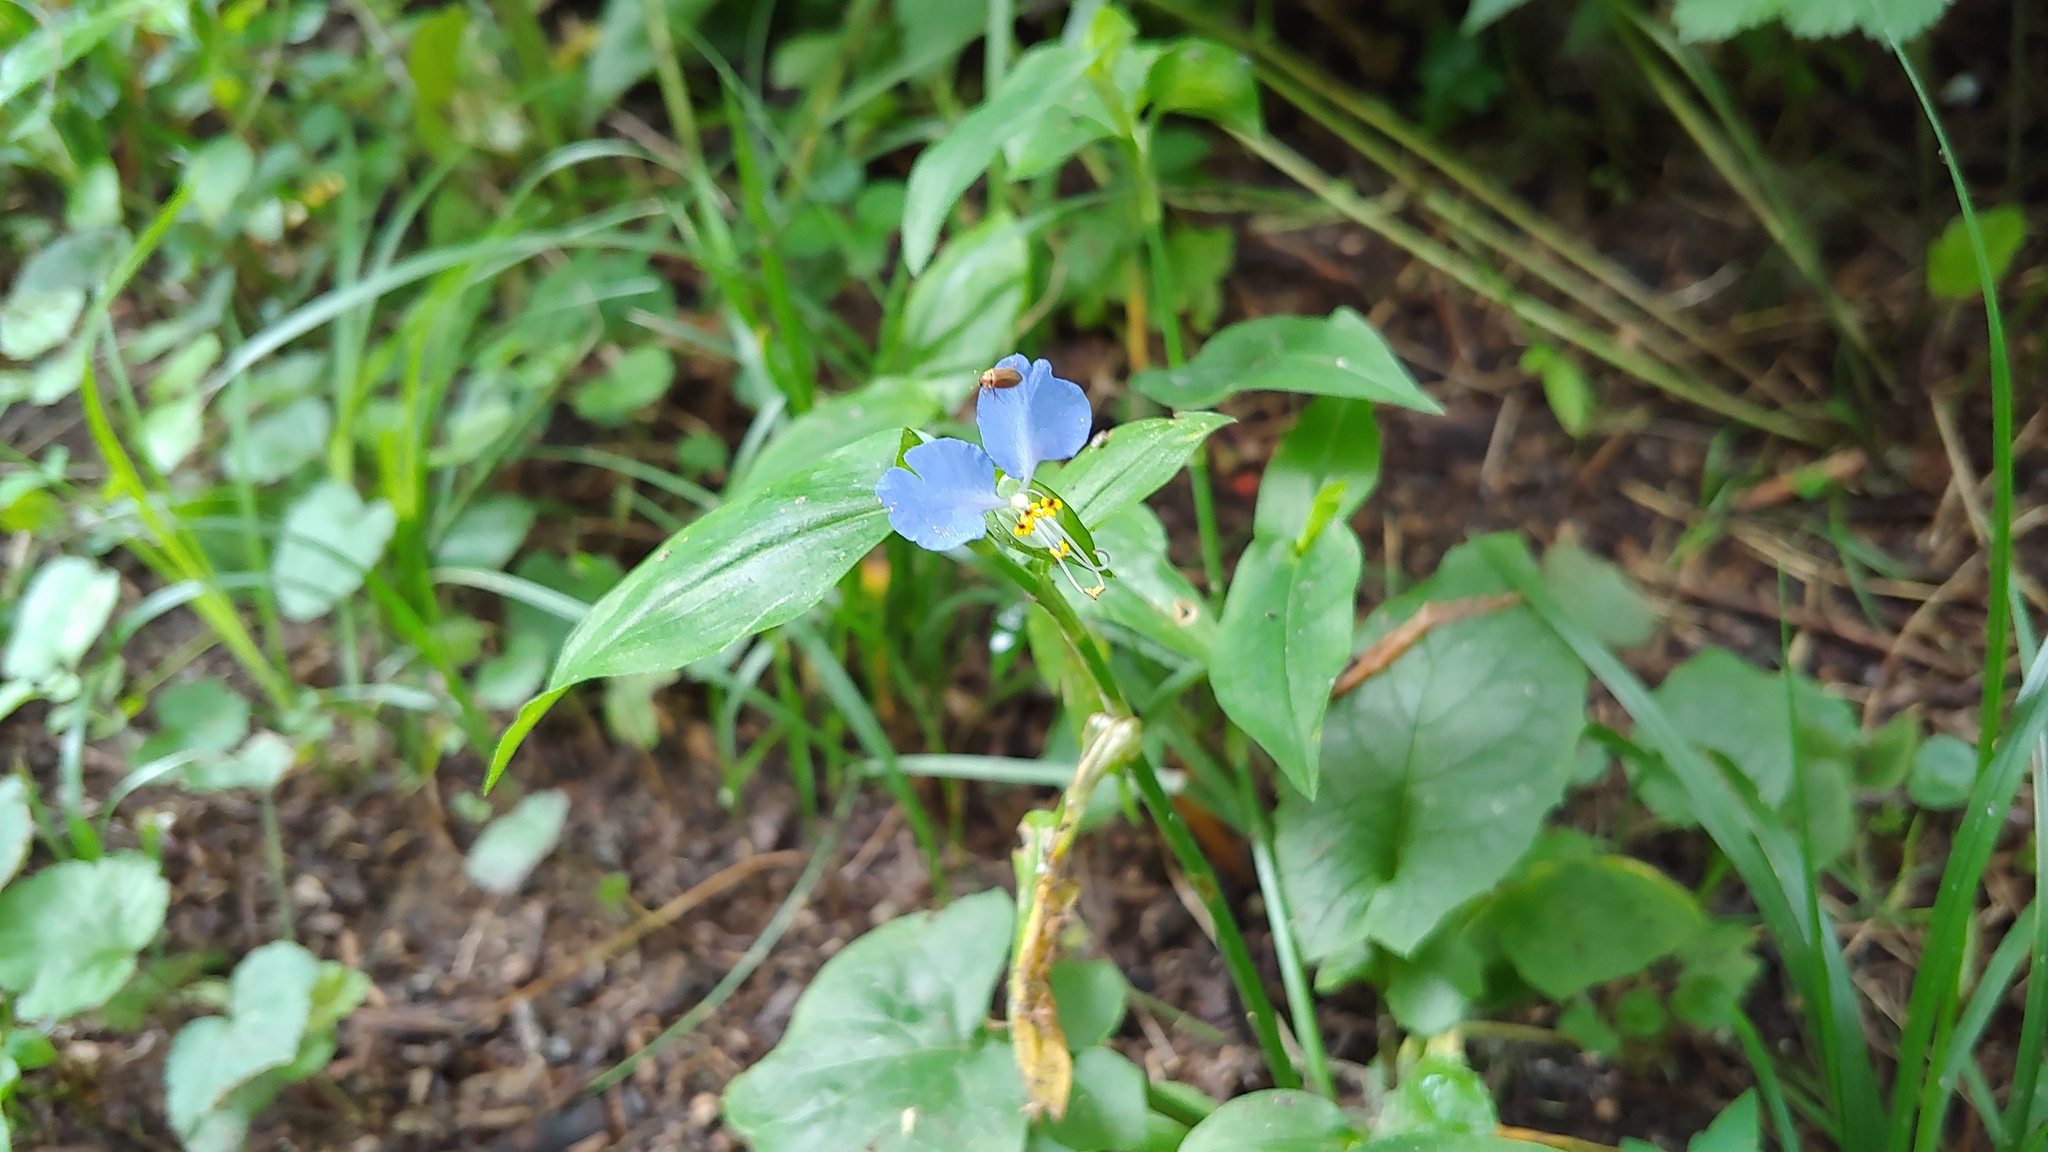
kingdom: Plantae
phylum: Tracheophyta
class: Liliopsida
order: Commelinales
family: Commelinaceae
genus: Commelina
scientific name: Commelina communis
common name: Asiatic dayflower
